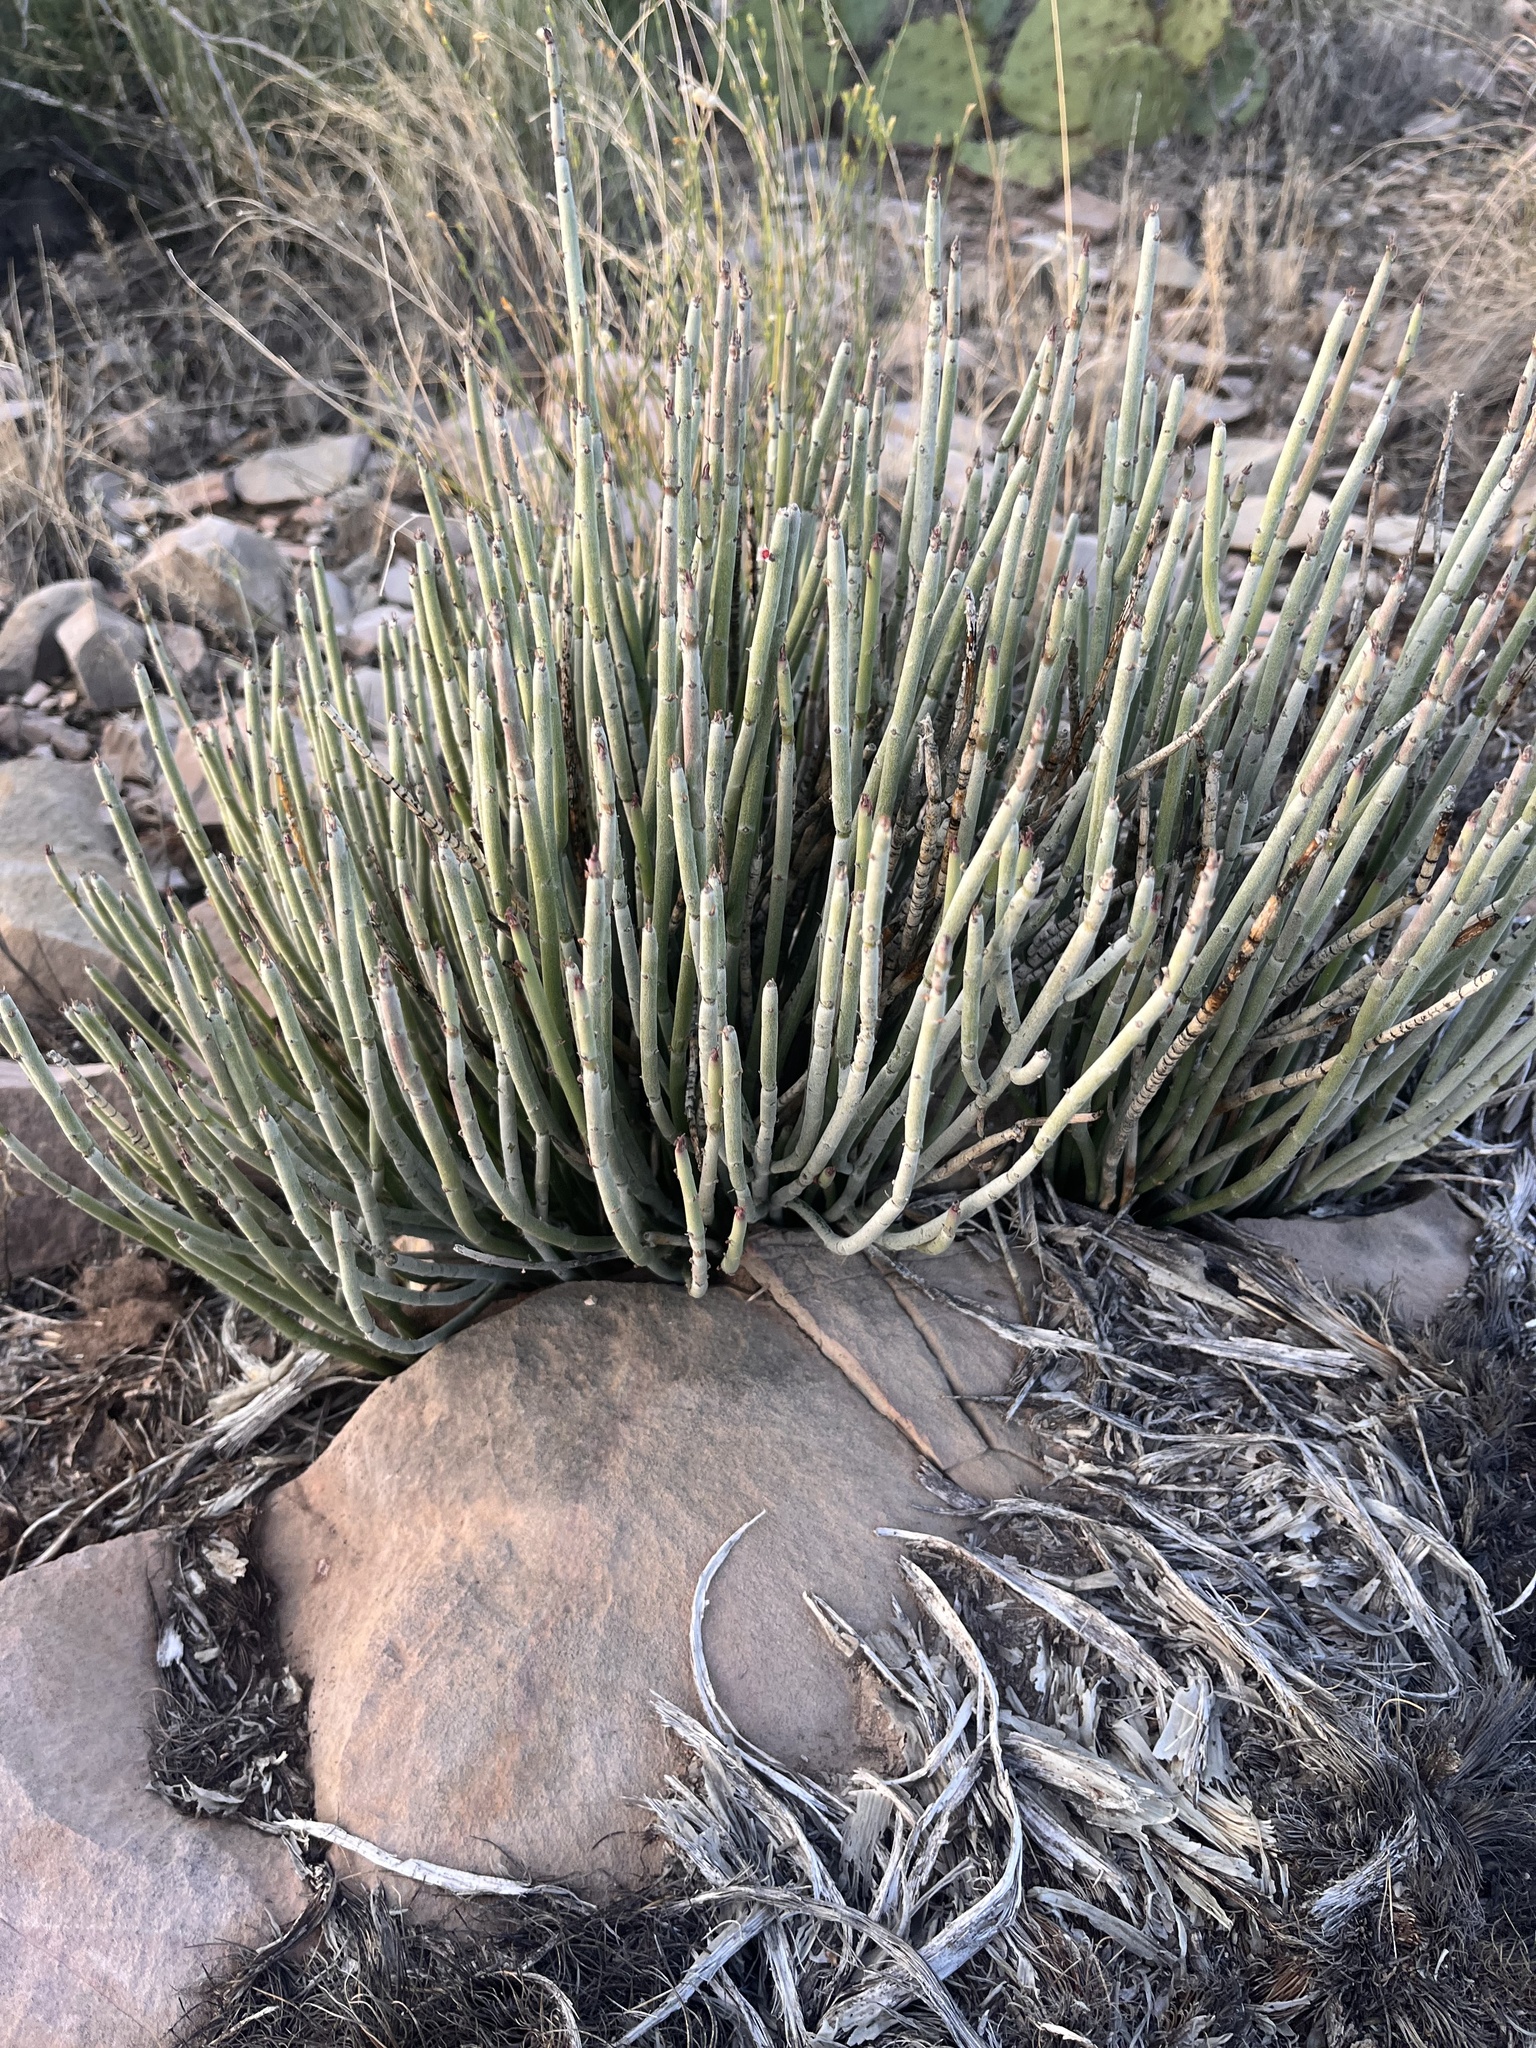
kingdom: Plantae
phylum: Tracheophyta
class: Magnoliopsida
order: Malpighiales
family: Euphorbiaceae
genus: Euphorbia
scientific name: Euphorbia antisyphilitica
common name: Candelilla
